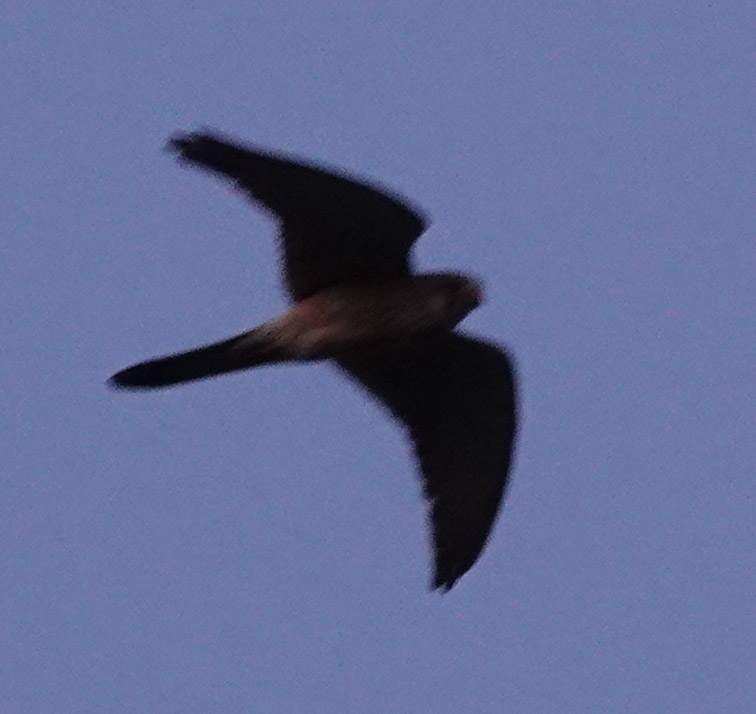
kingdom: Animalia
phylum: Chordata
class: Aves
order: Falconiformes
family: Falconidae
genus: Falco
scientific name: Falco tinnunculus
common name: Common kestrel
